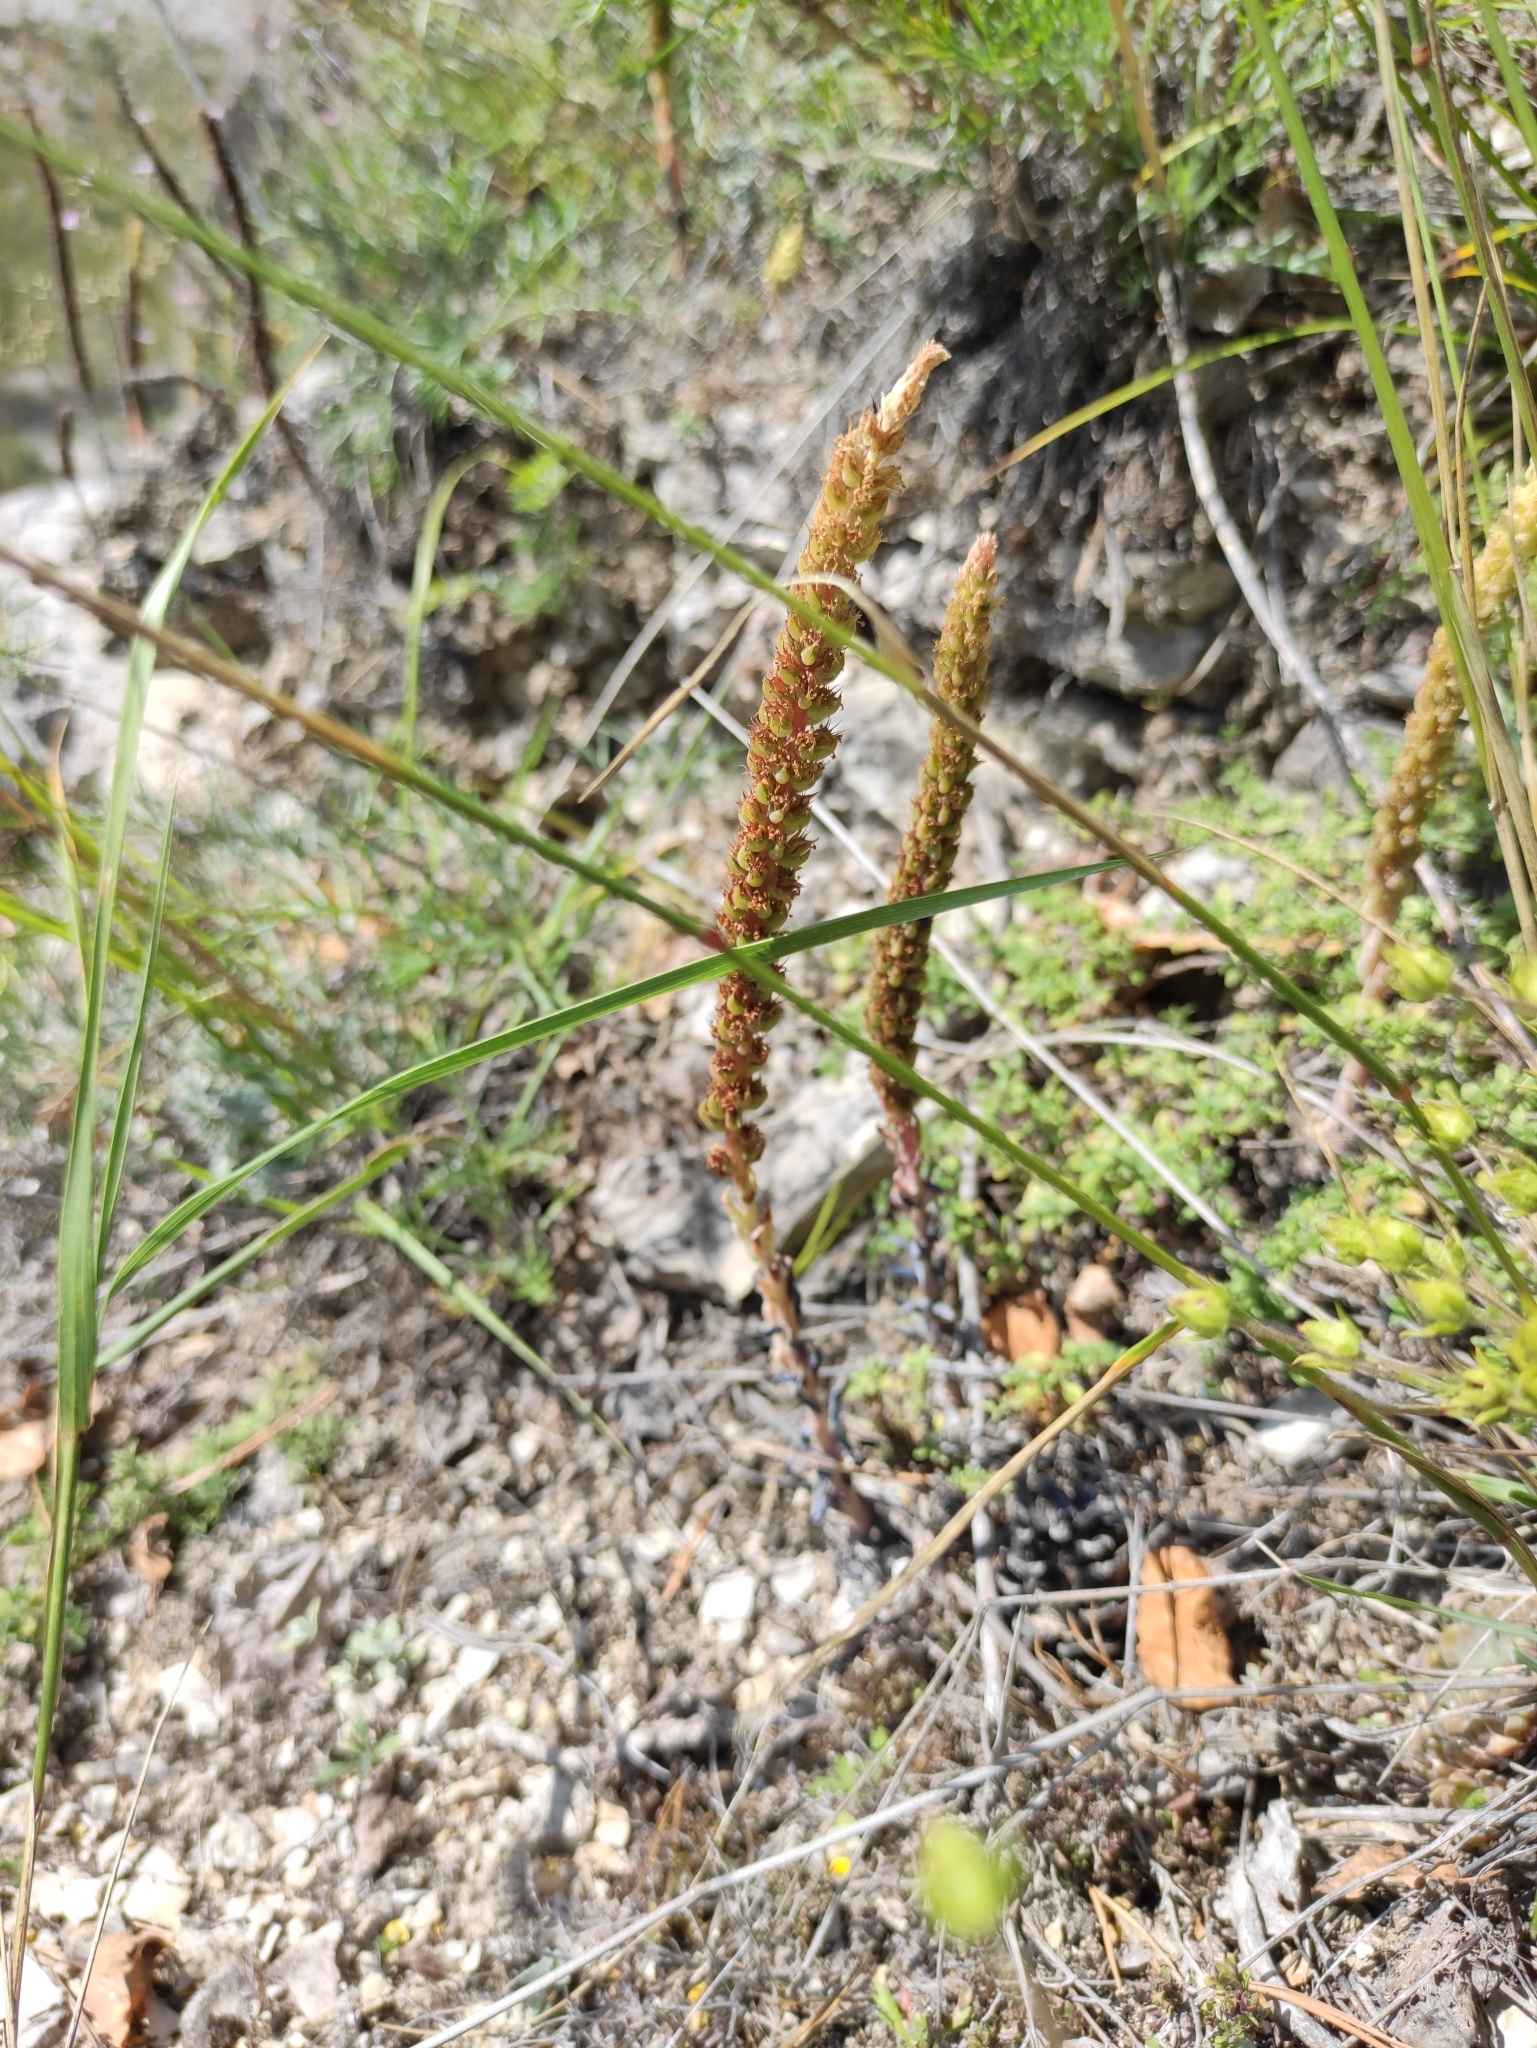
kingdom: Plantae
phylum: Tracheophyta
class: Magnoliopsida
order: Saxifragales
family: Crassulaceae
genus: Orostachys
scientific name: Orostachys spinosa
